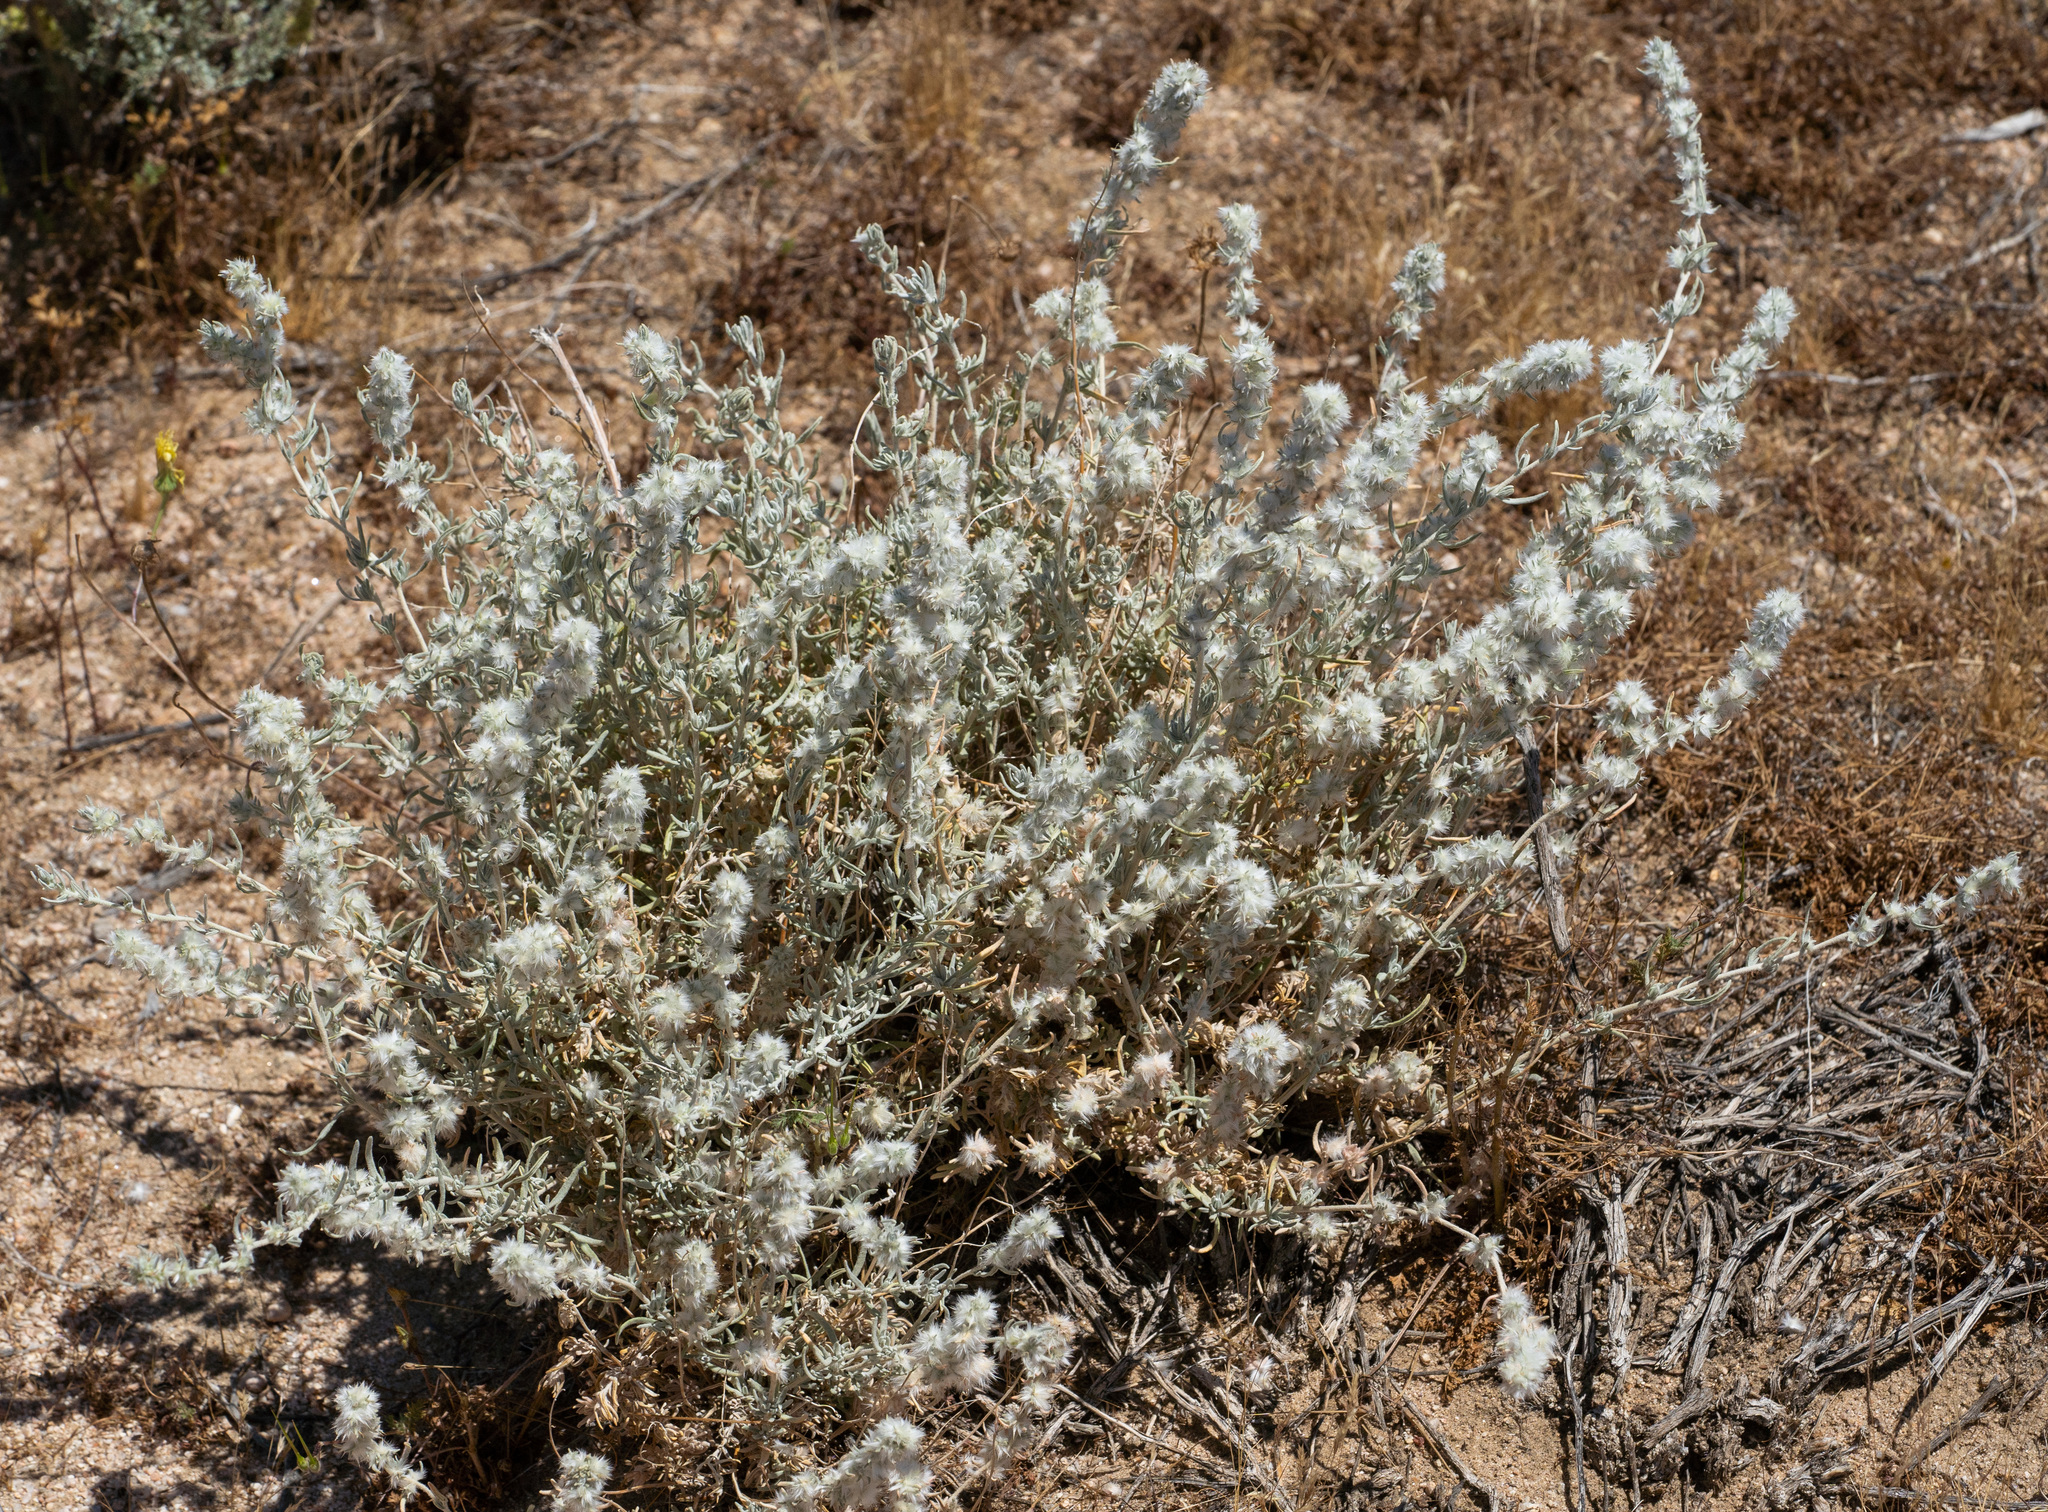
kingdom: Plantae
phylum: Tracheophyta
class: Magnoliopsida
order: Caryophyllales
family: Amaranthaceae
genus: Krascheninnikovia
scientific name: Krascheninnikovia lanata
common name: Winterfat
